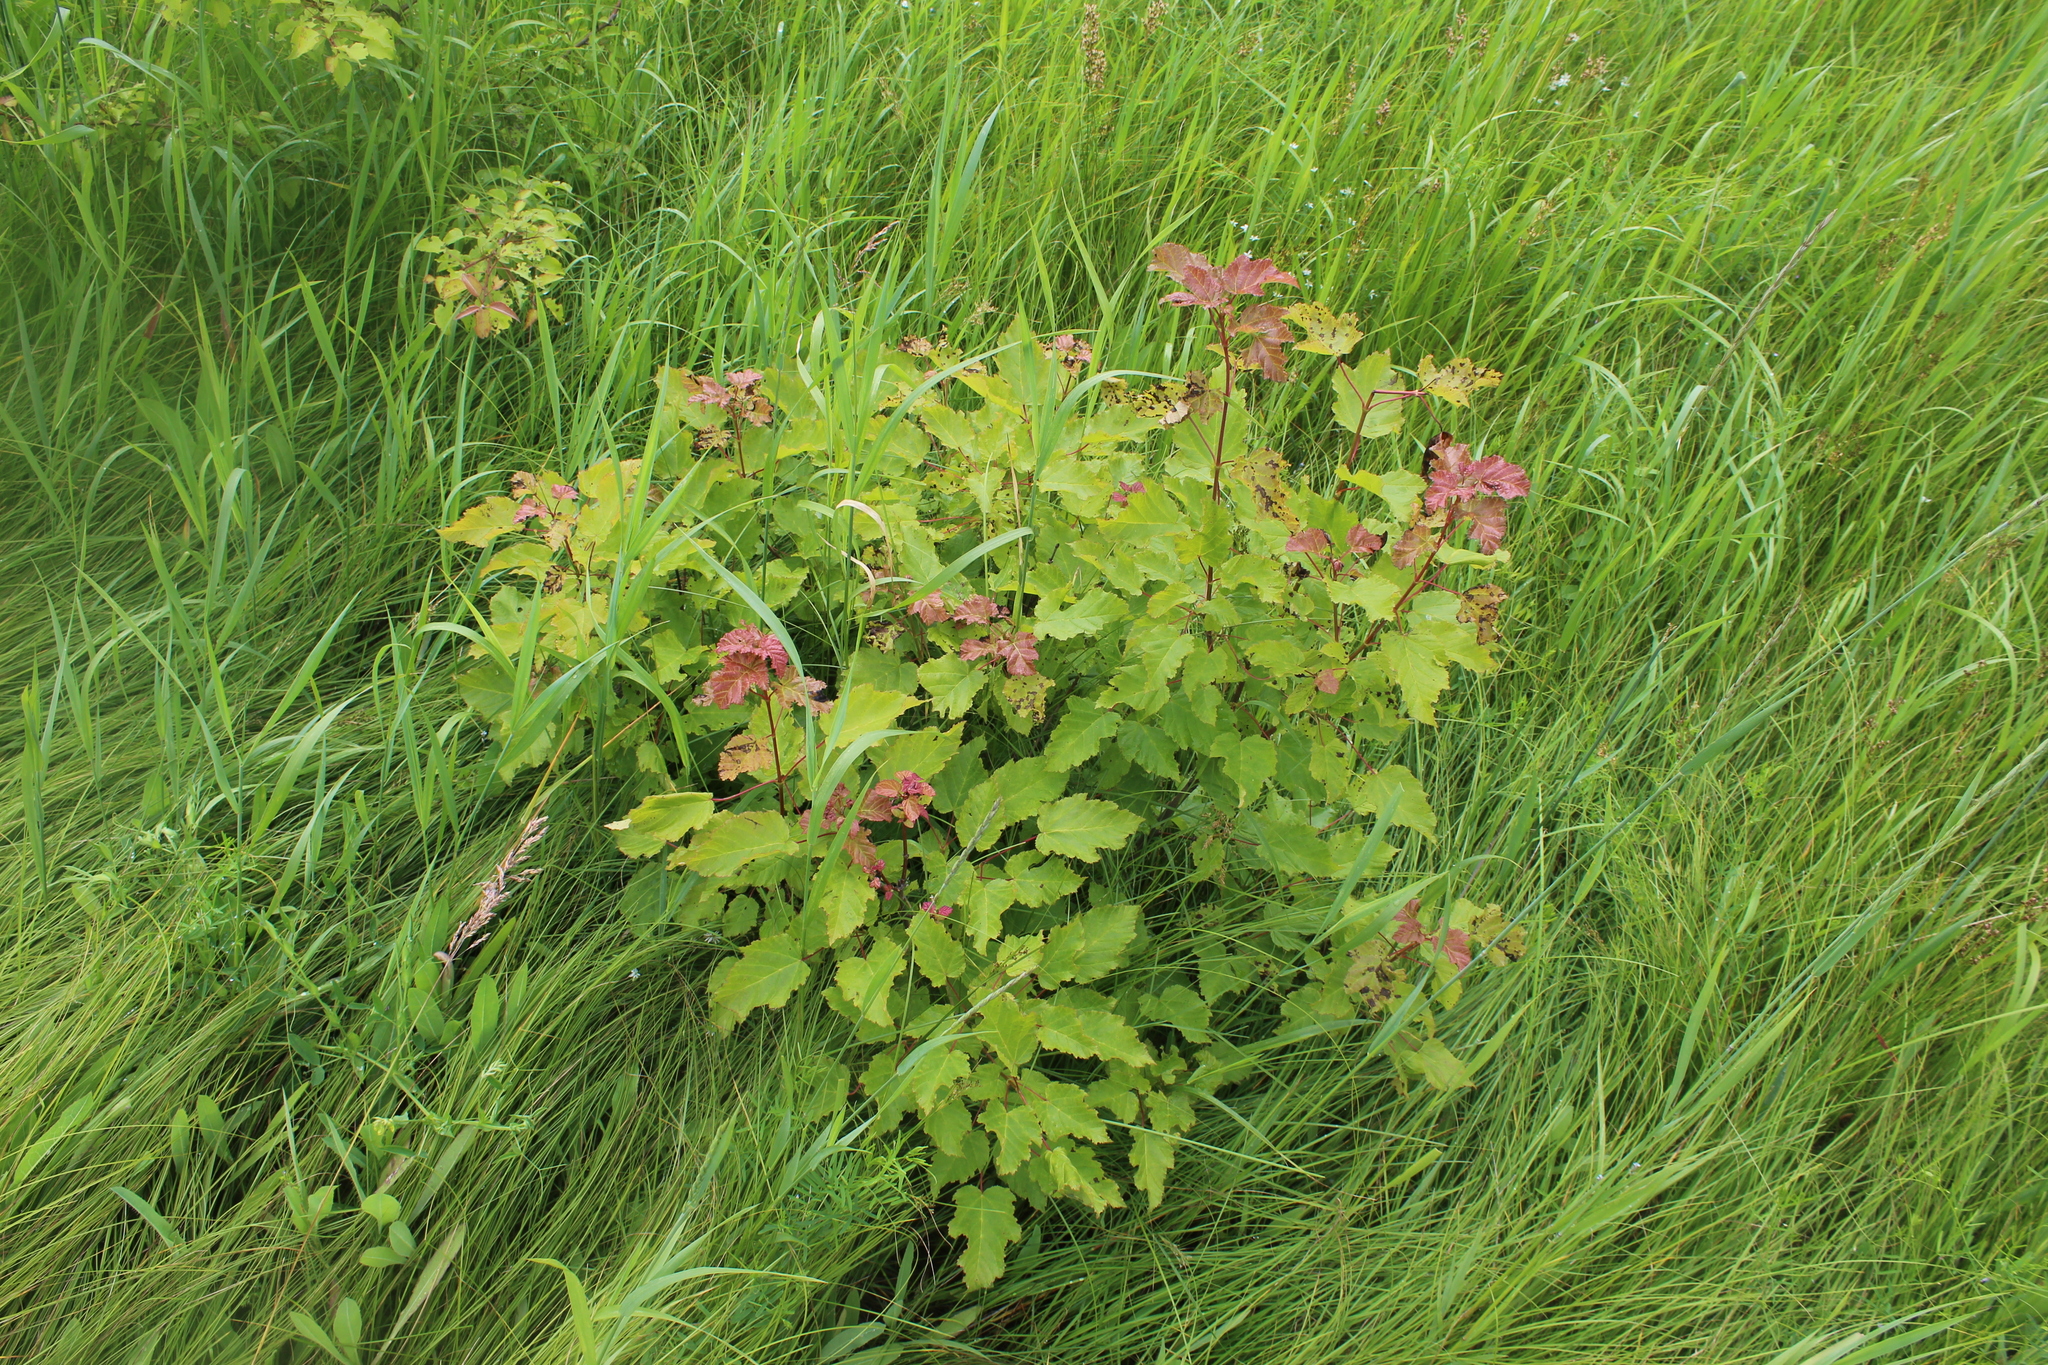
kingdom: Plantae
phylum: Tracheophyta
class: Magnoliopsida
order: Sapindales
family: Sapindaceae
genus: Acer
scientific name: Acer tataricum
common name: Tartar maple
